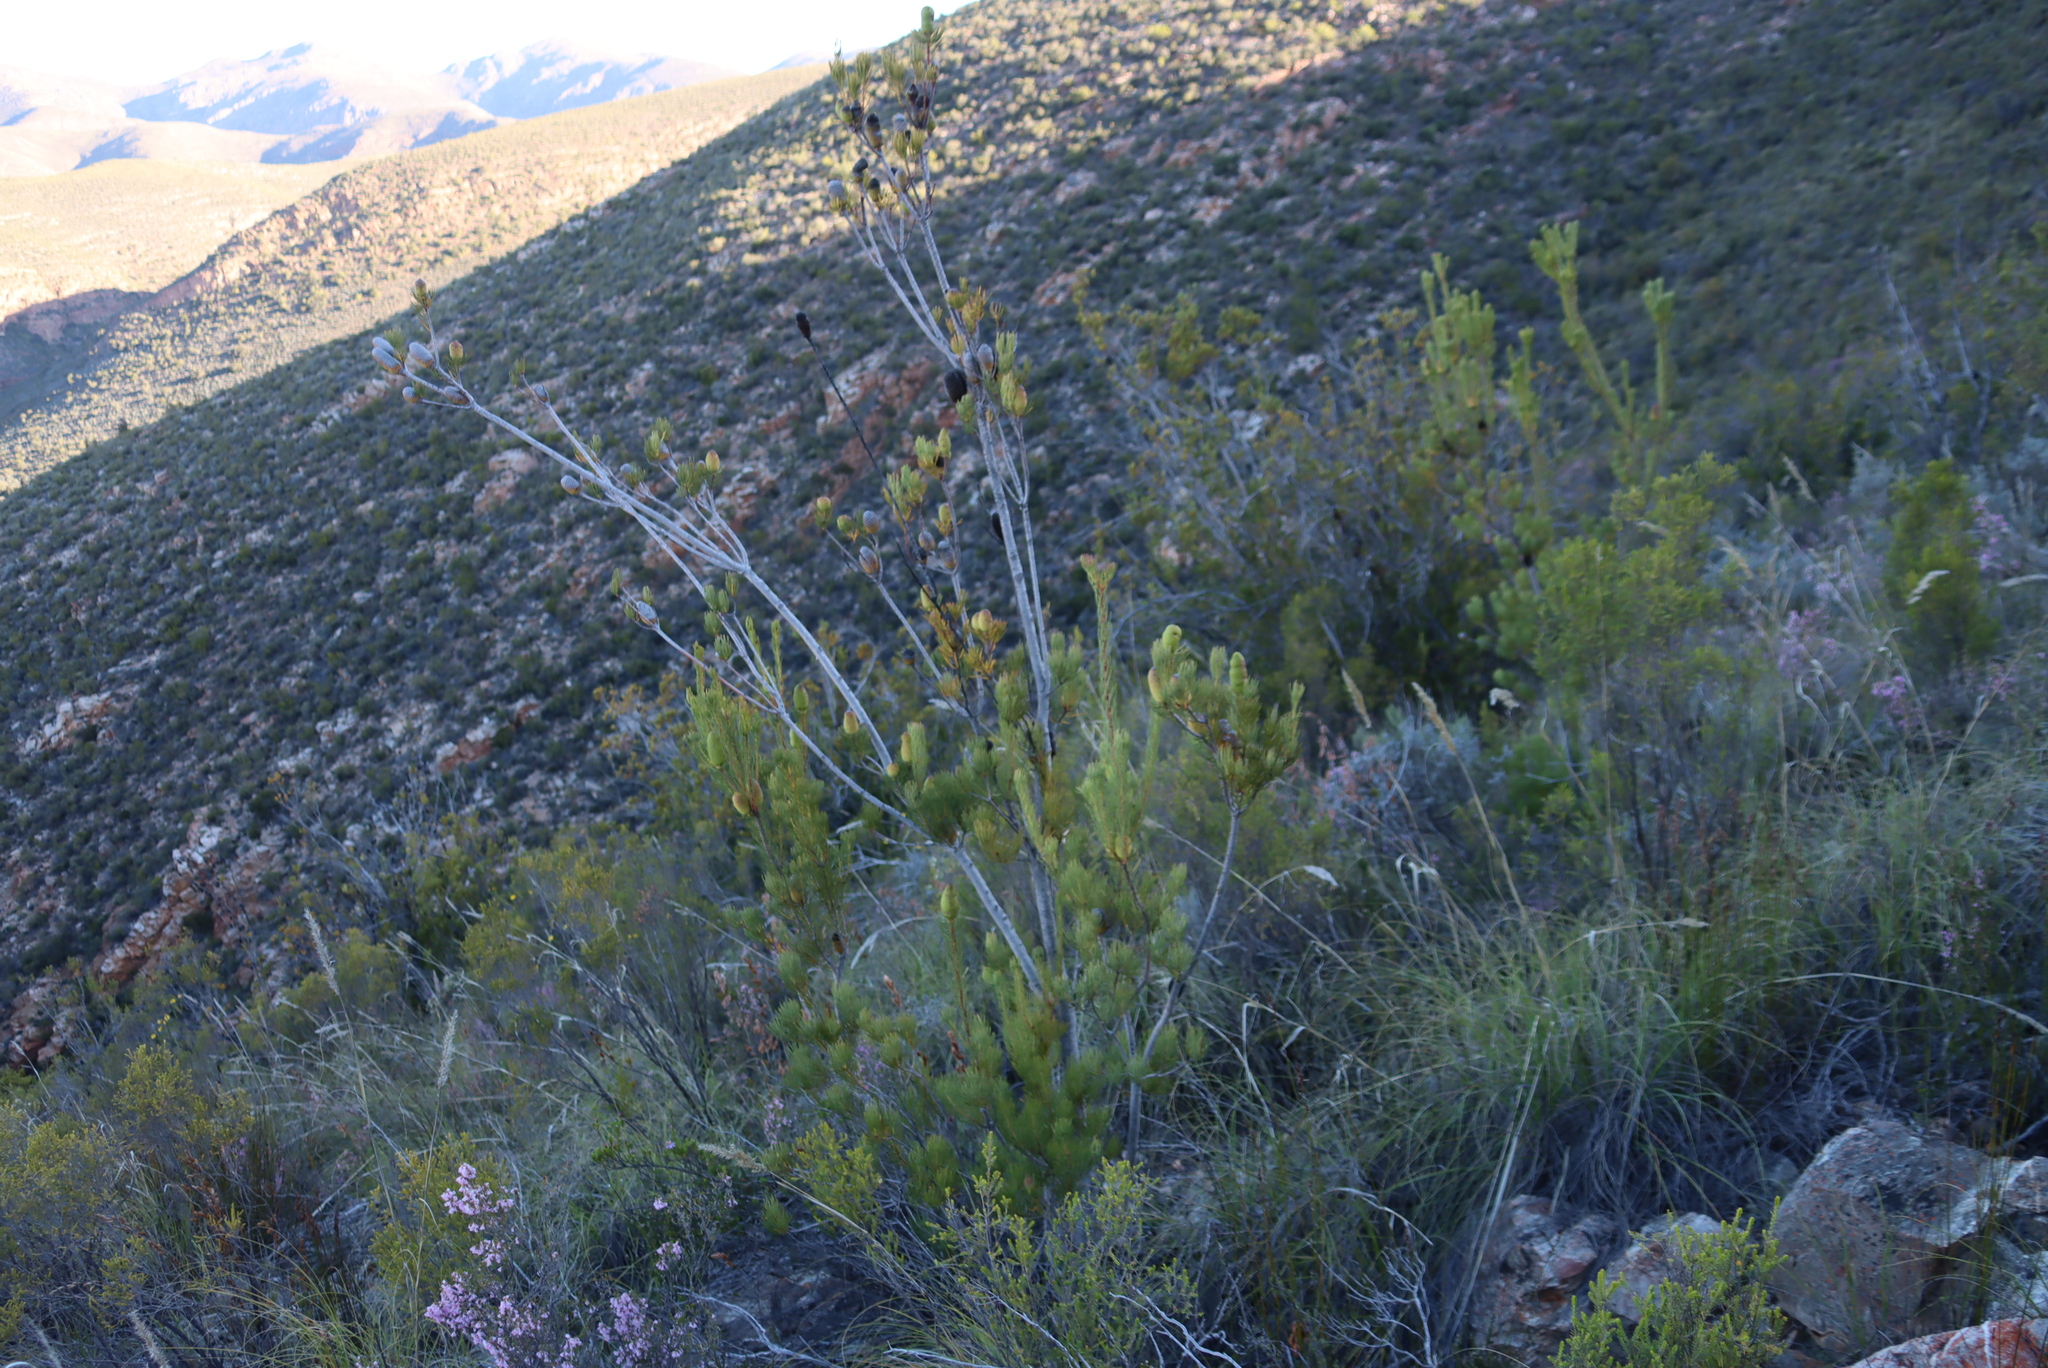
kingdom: Plantae
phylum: Tracheophyta
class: Magnoliopsida
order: Proteales
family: Proteaceae
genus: Leucadendron
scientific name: Leucadendron nobile
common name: Karoo conebush
